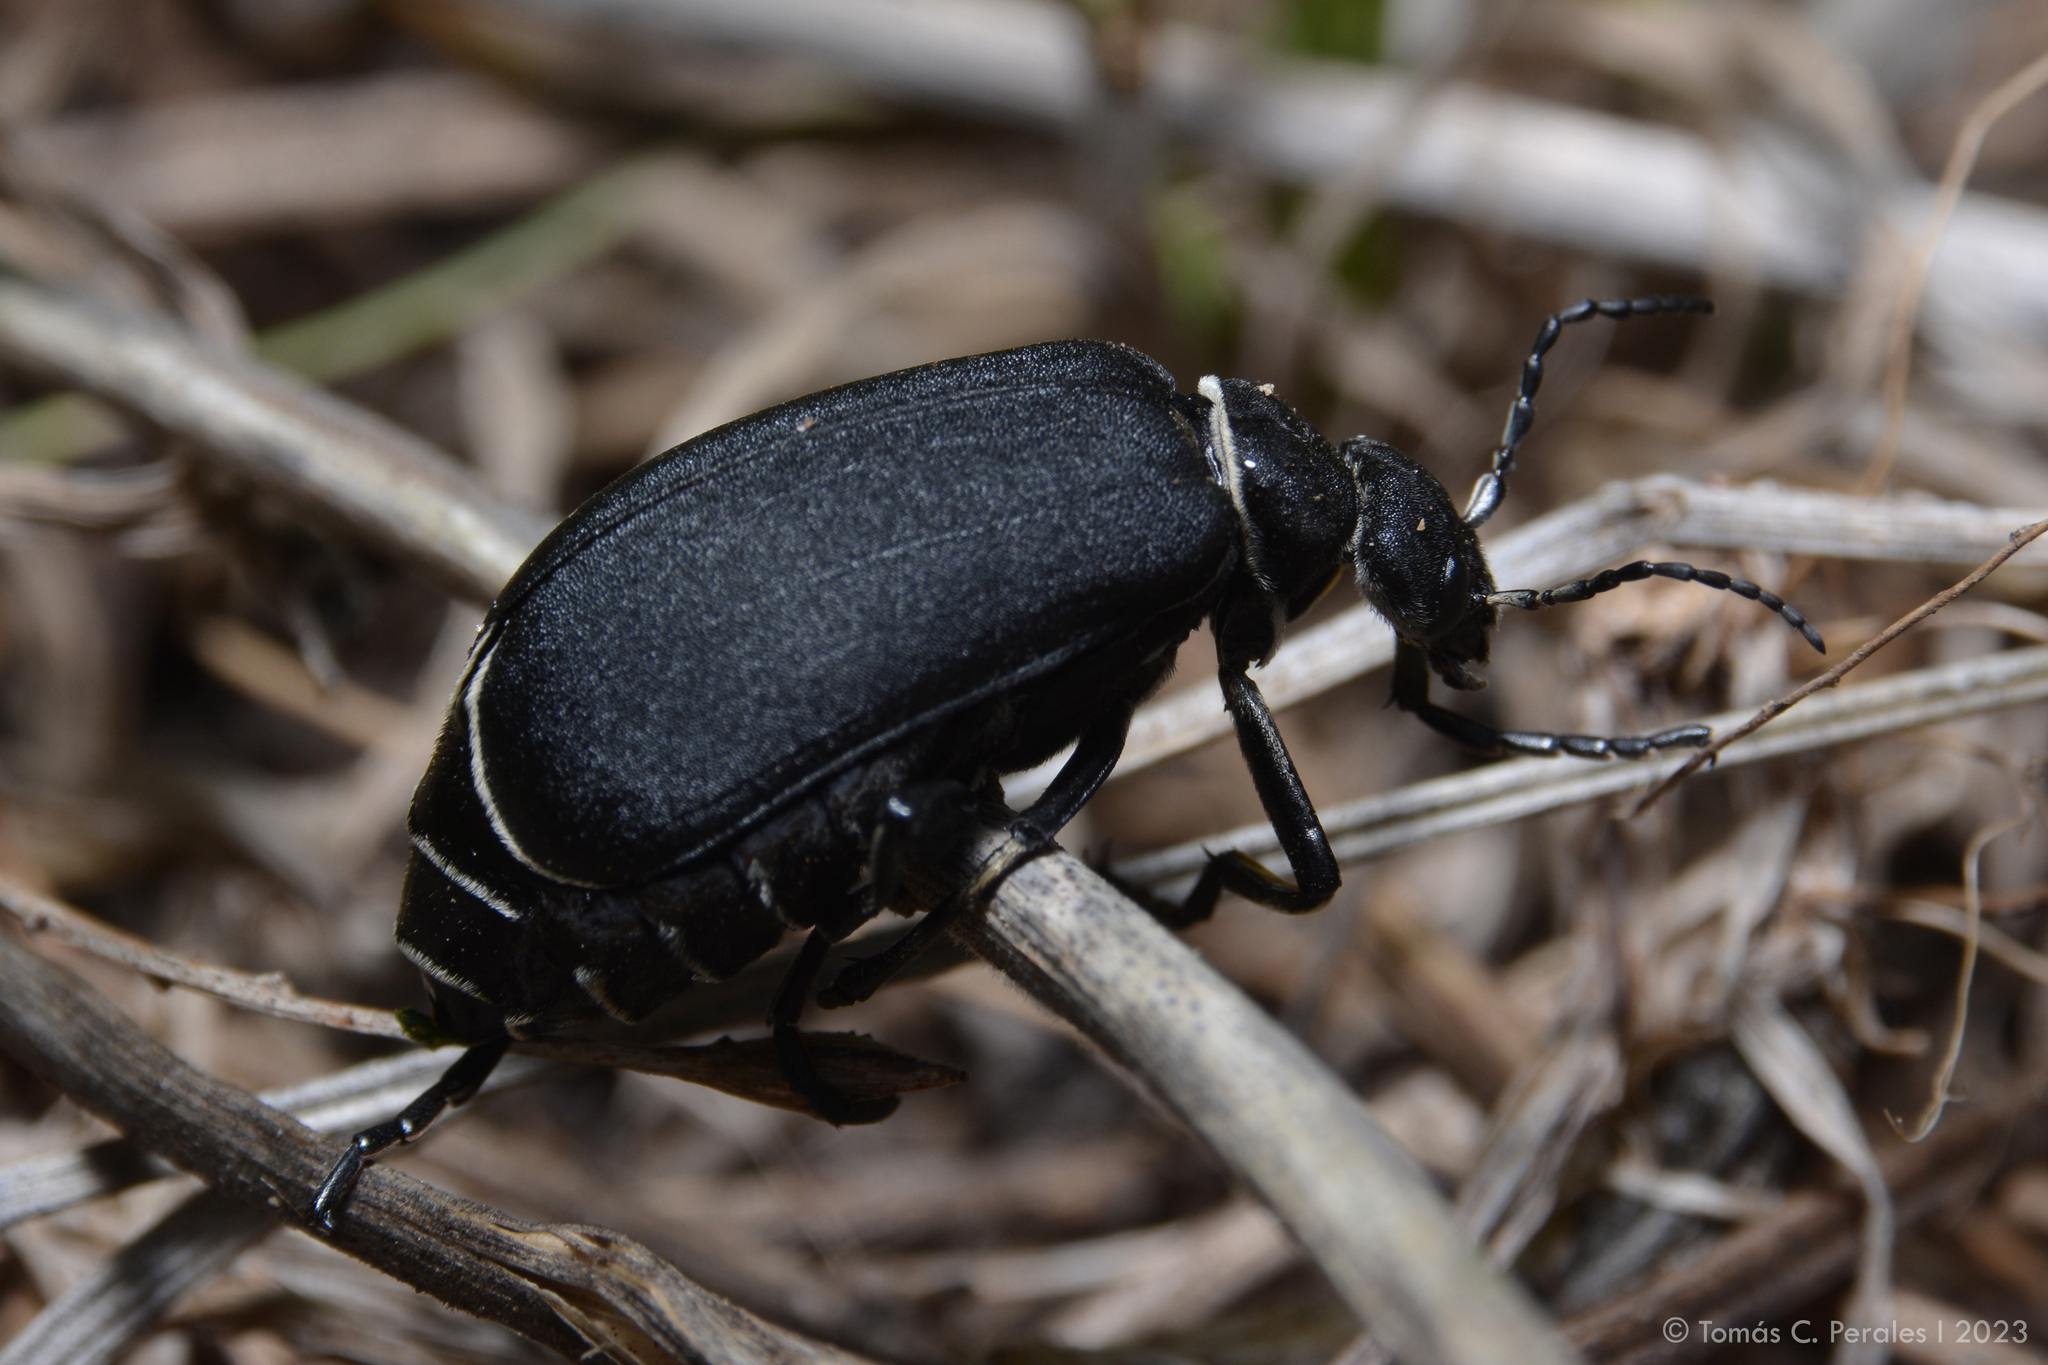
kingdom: Animalia
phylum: Arthropoda
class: Insecta
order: Coleoptera
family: Meloidae
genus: Epicauta
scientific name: Epicauta
